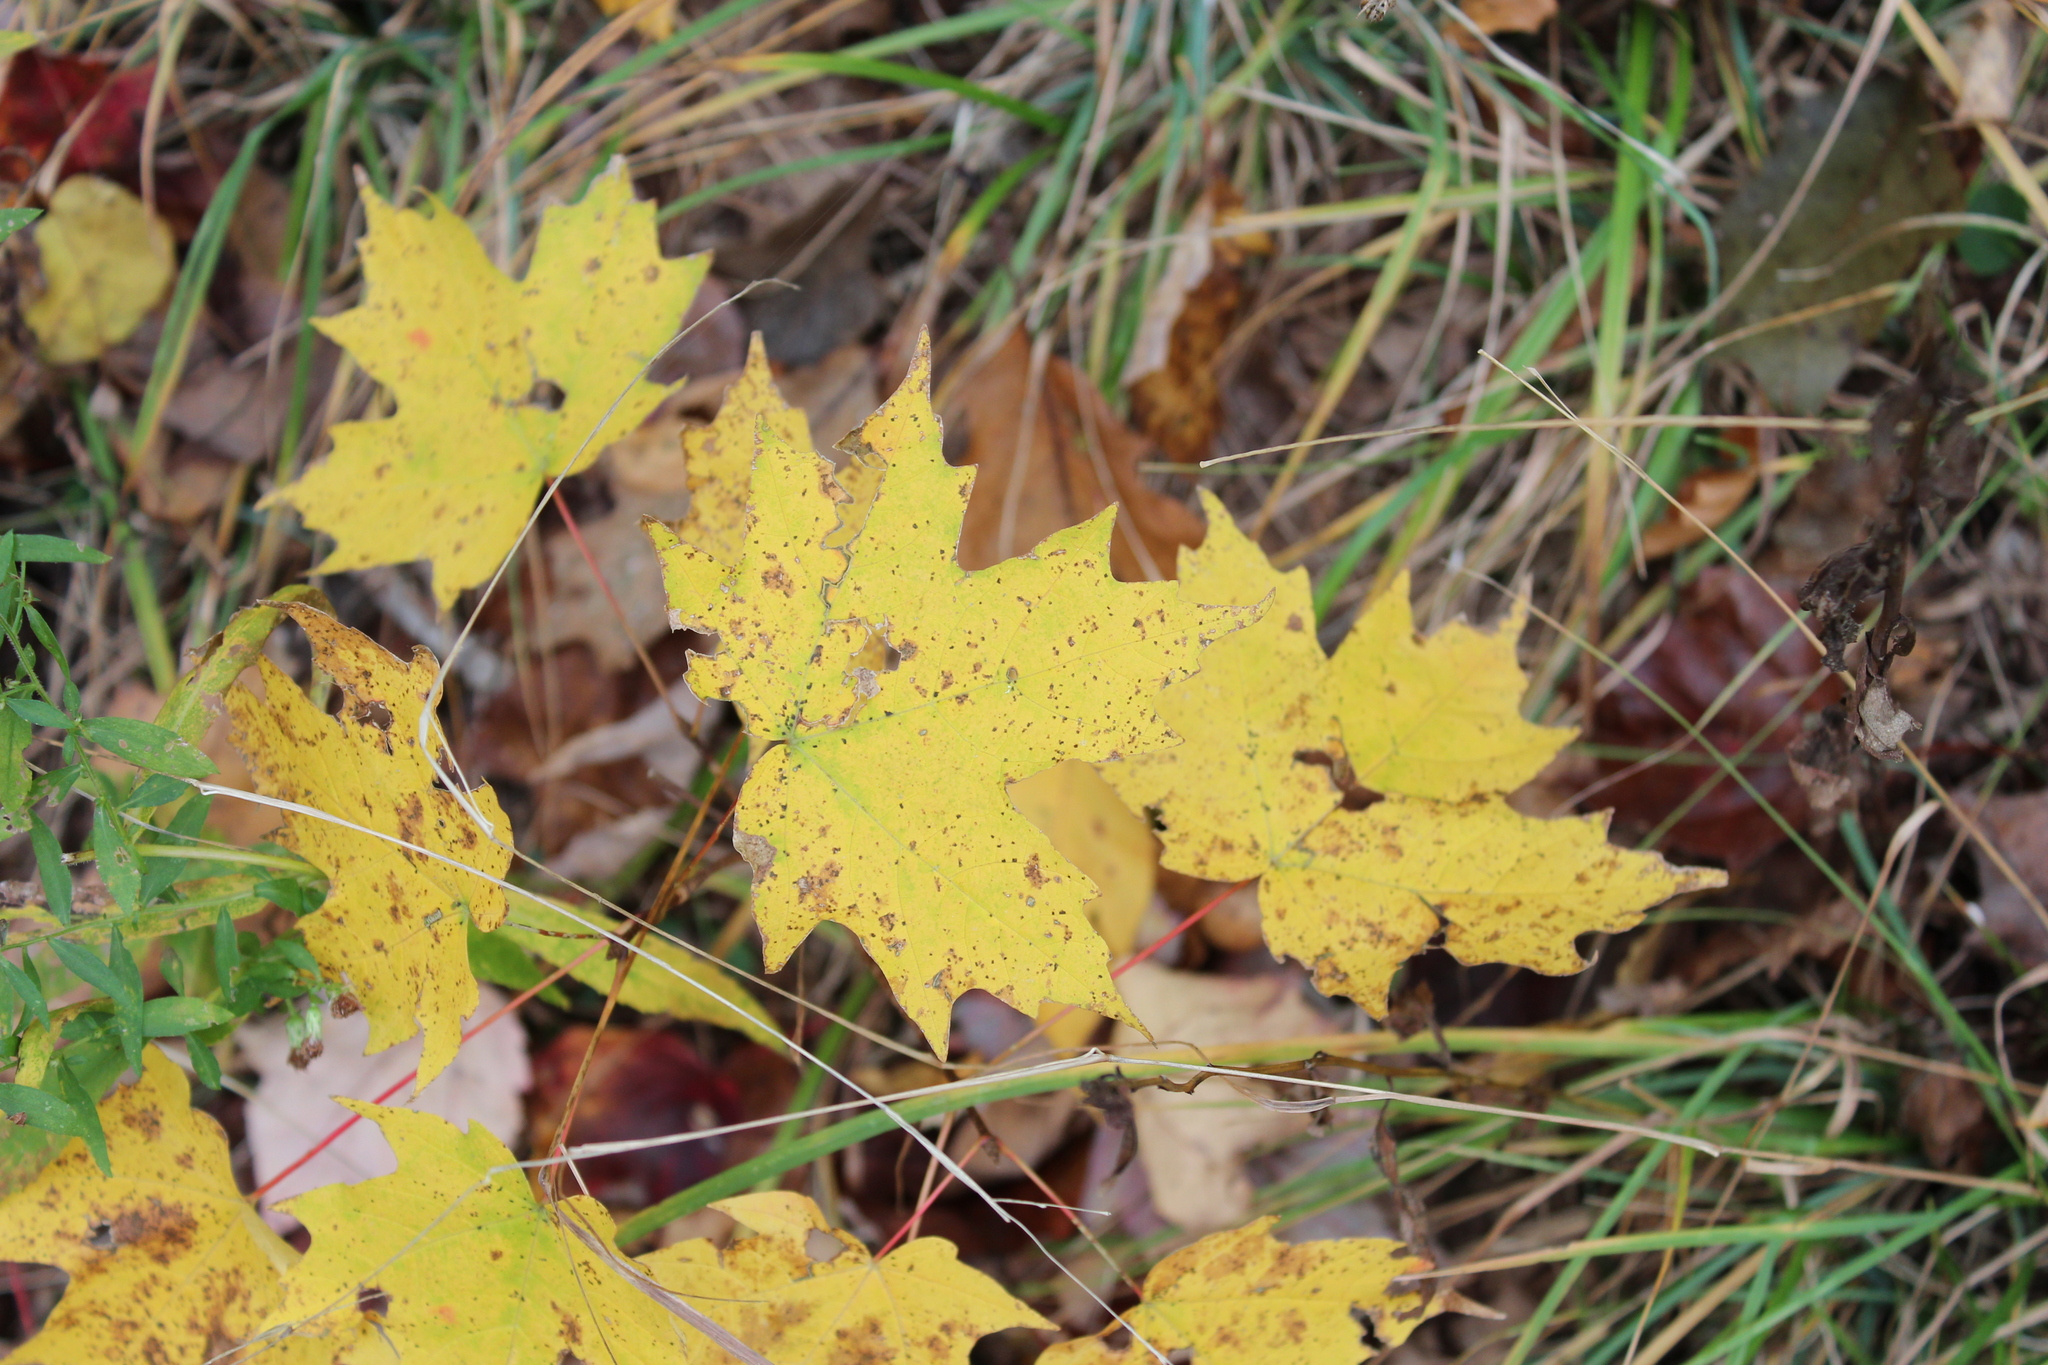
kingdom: Plantae
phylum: Tracheophyta
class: Magnoliopsida
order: Sapindales
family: Sapindaceae
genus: Acer
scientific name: Acer saccharum
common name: Sugar maple
